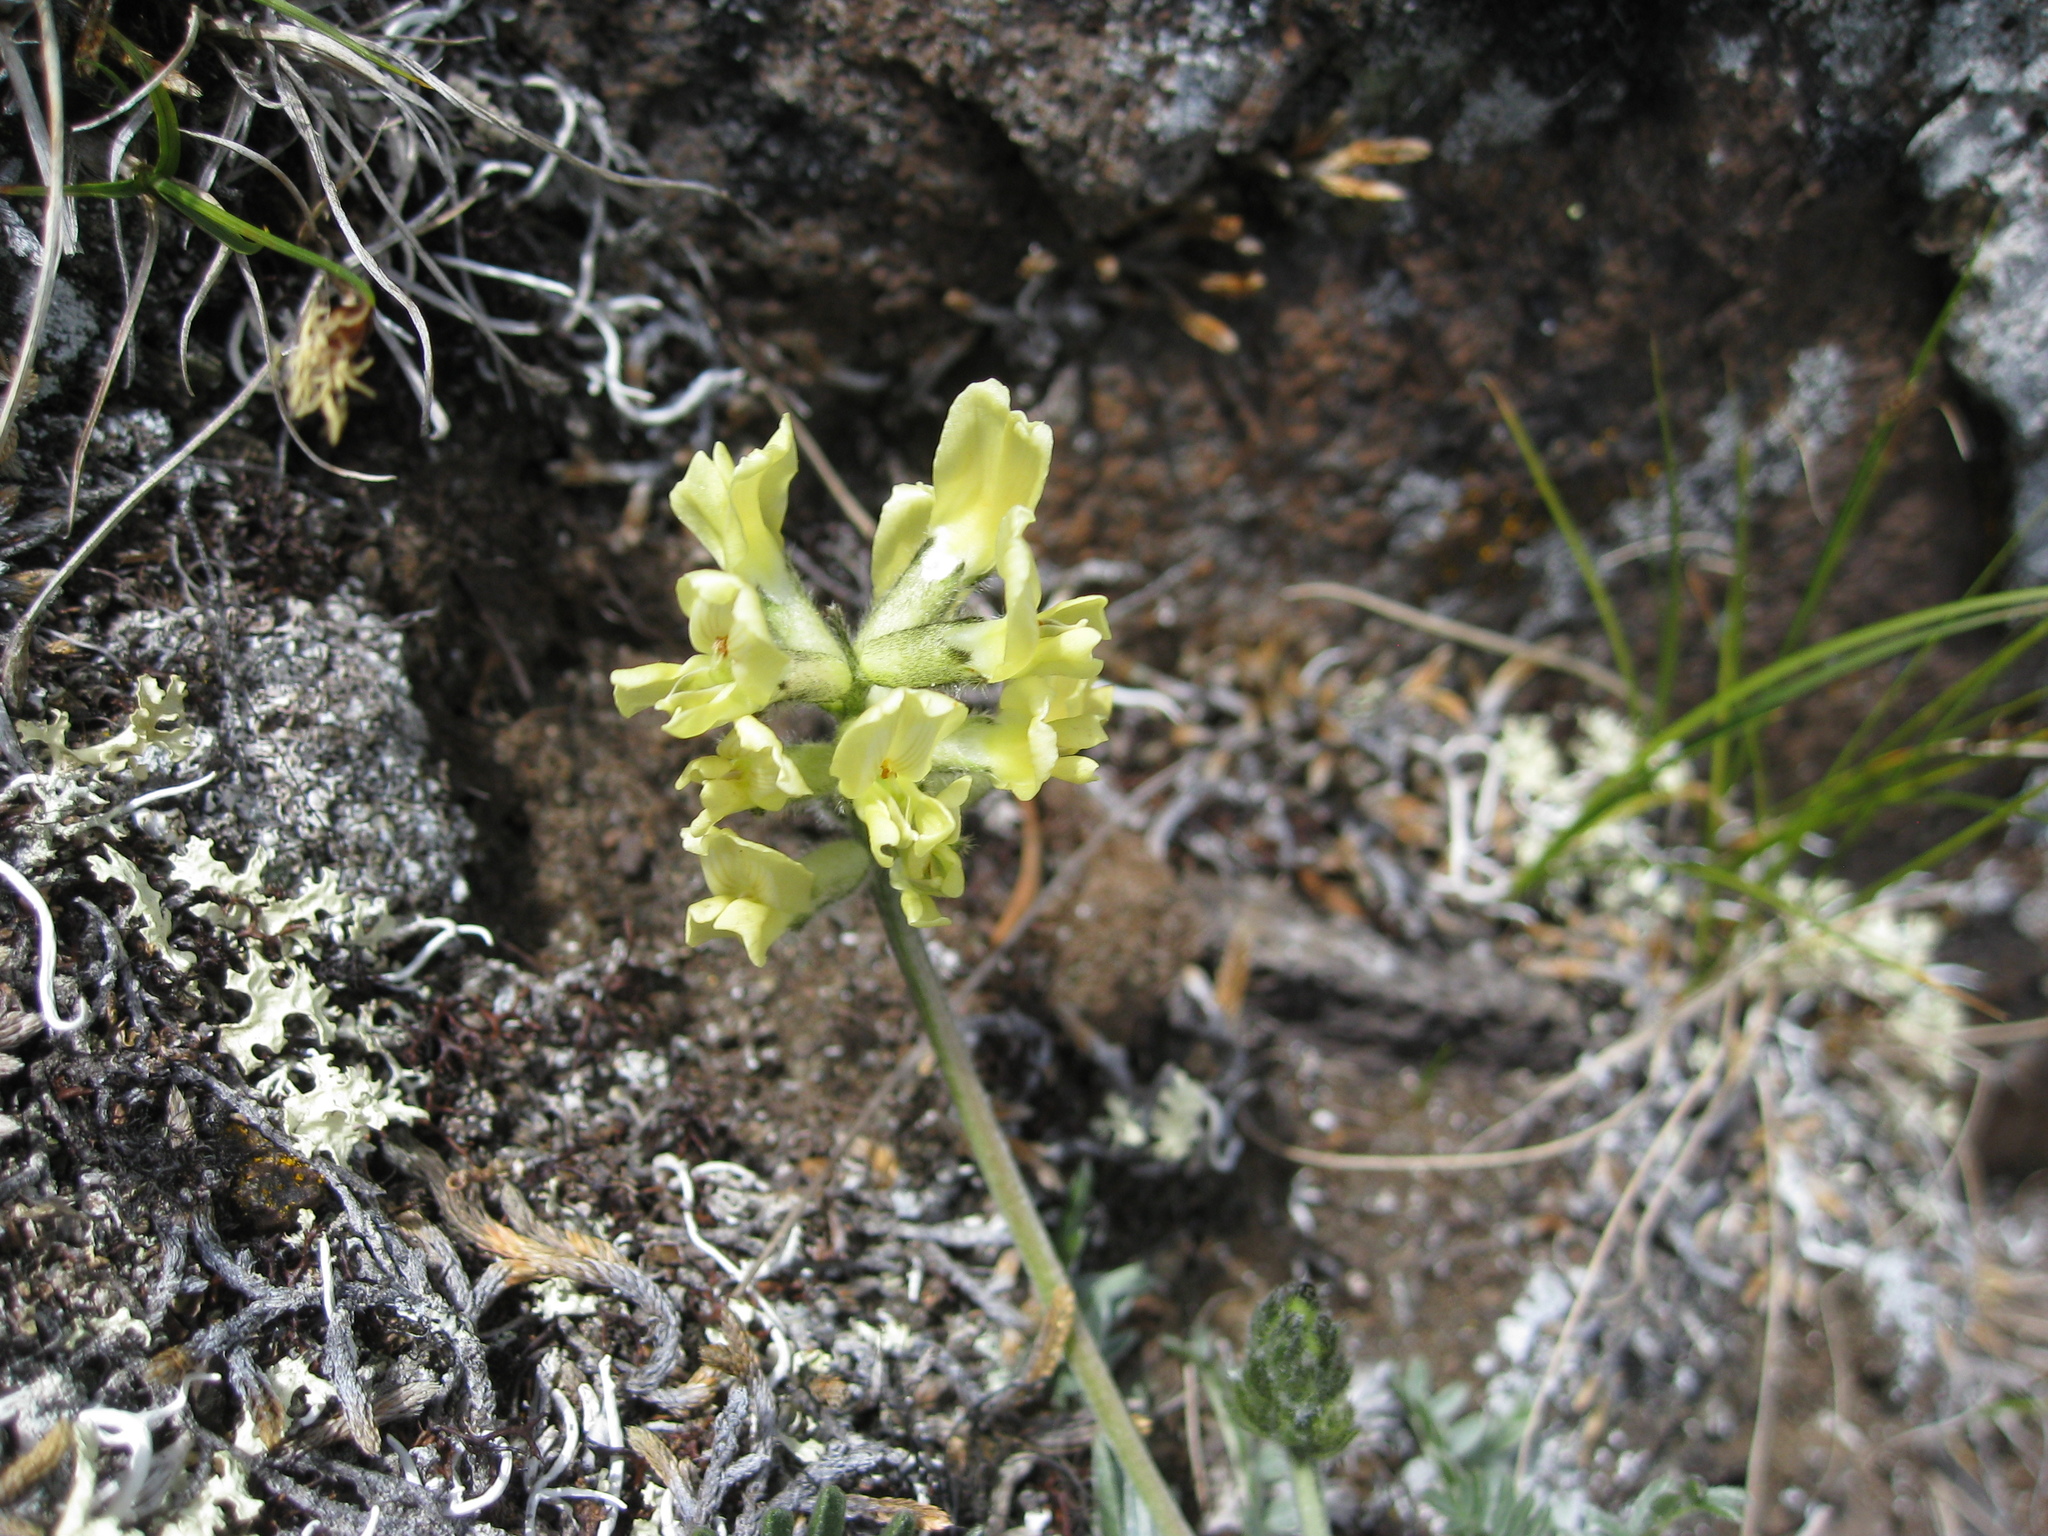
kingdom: Plantae
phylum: Tracheophyta
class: Magnoliopsida
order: Fabales
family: Fabaceae
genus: Oxytropis
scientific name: Oxytropis campestris
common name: Field locoweed
